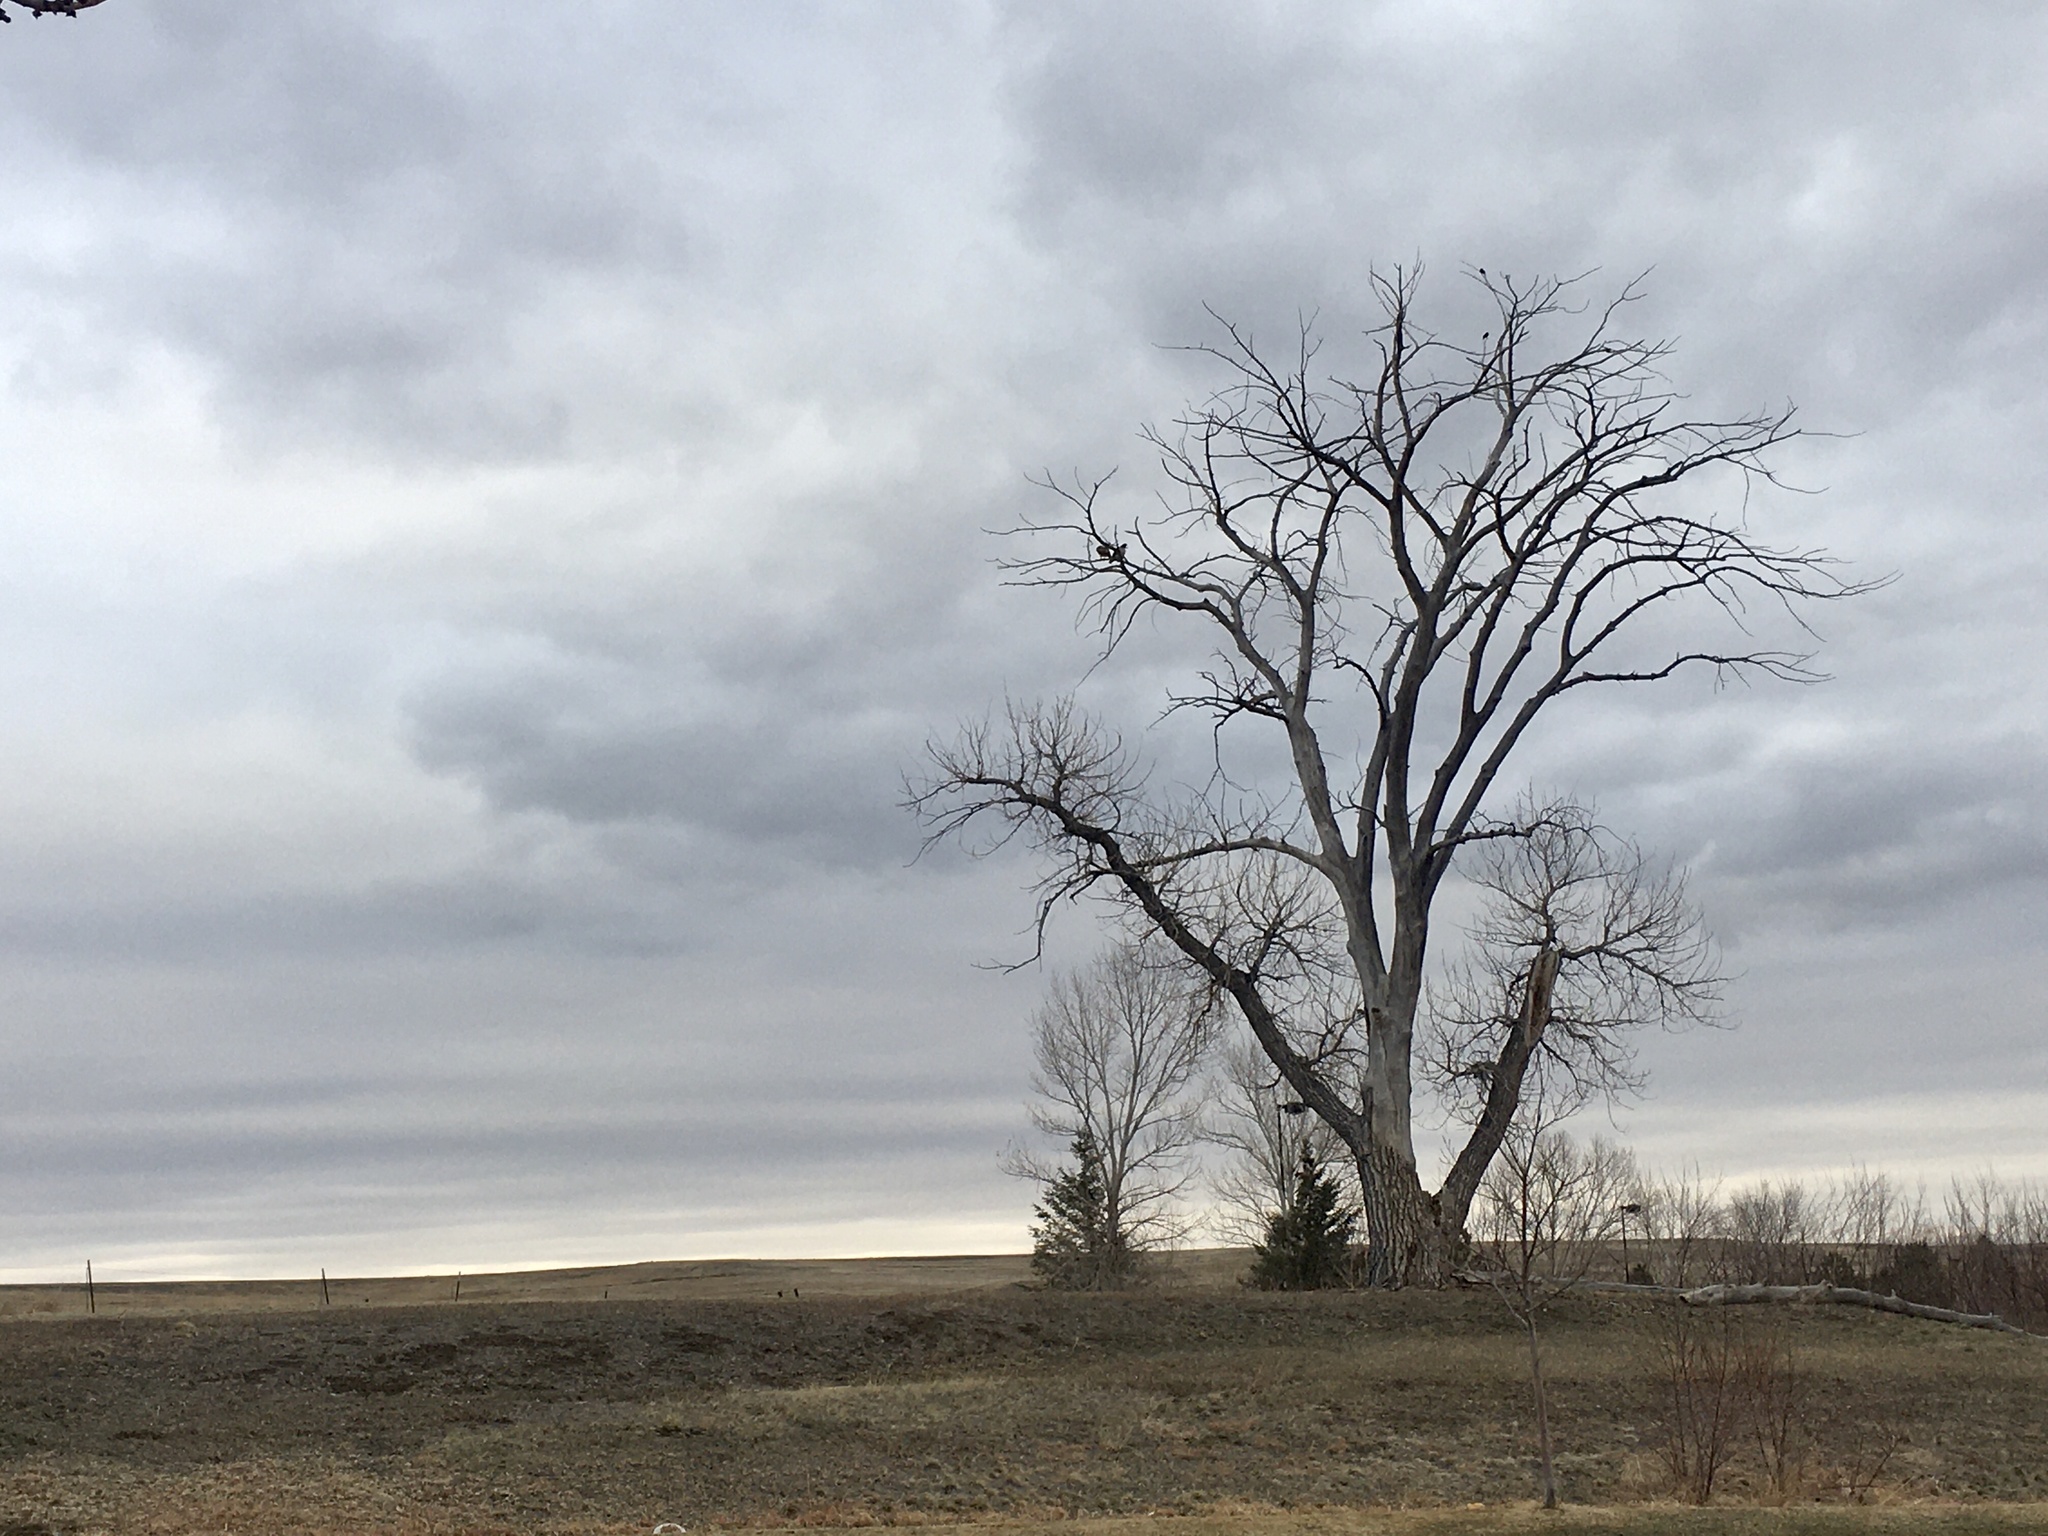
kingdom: Animalia
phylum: Chordata
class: Aves
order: Accipitriformes
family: Accipitridae
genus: Buteo
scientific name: Buteo jamaicensis
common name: Red-tailed hawk
